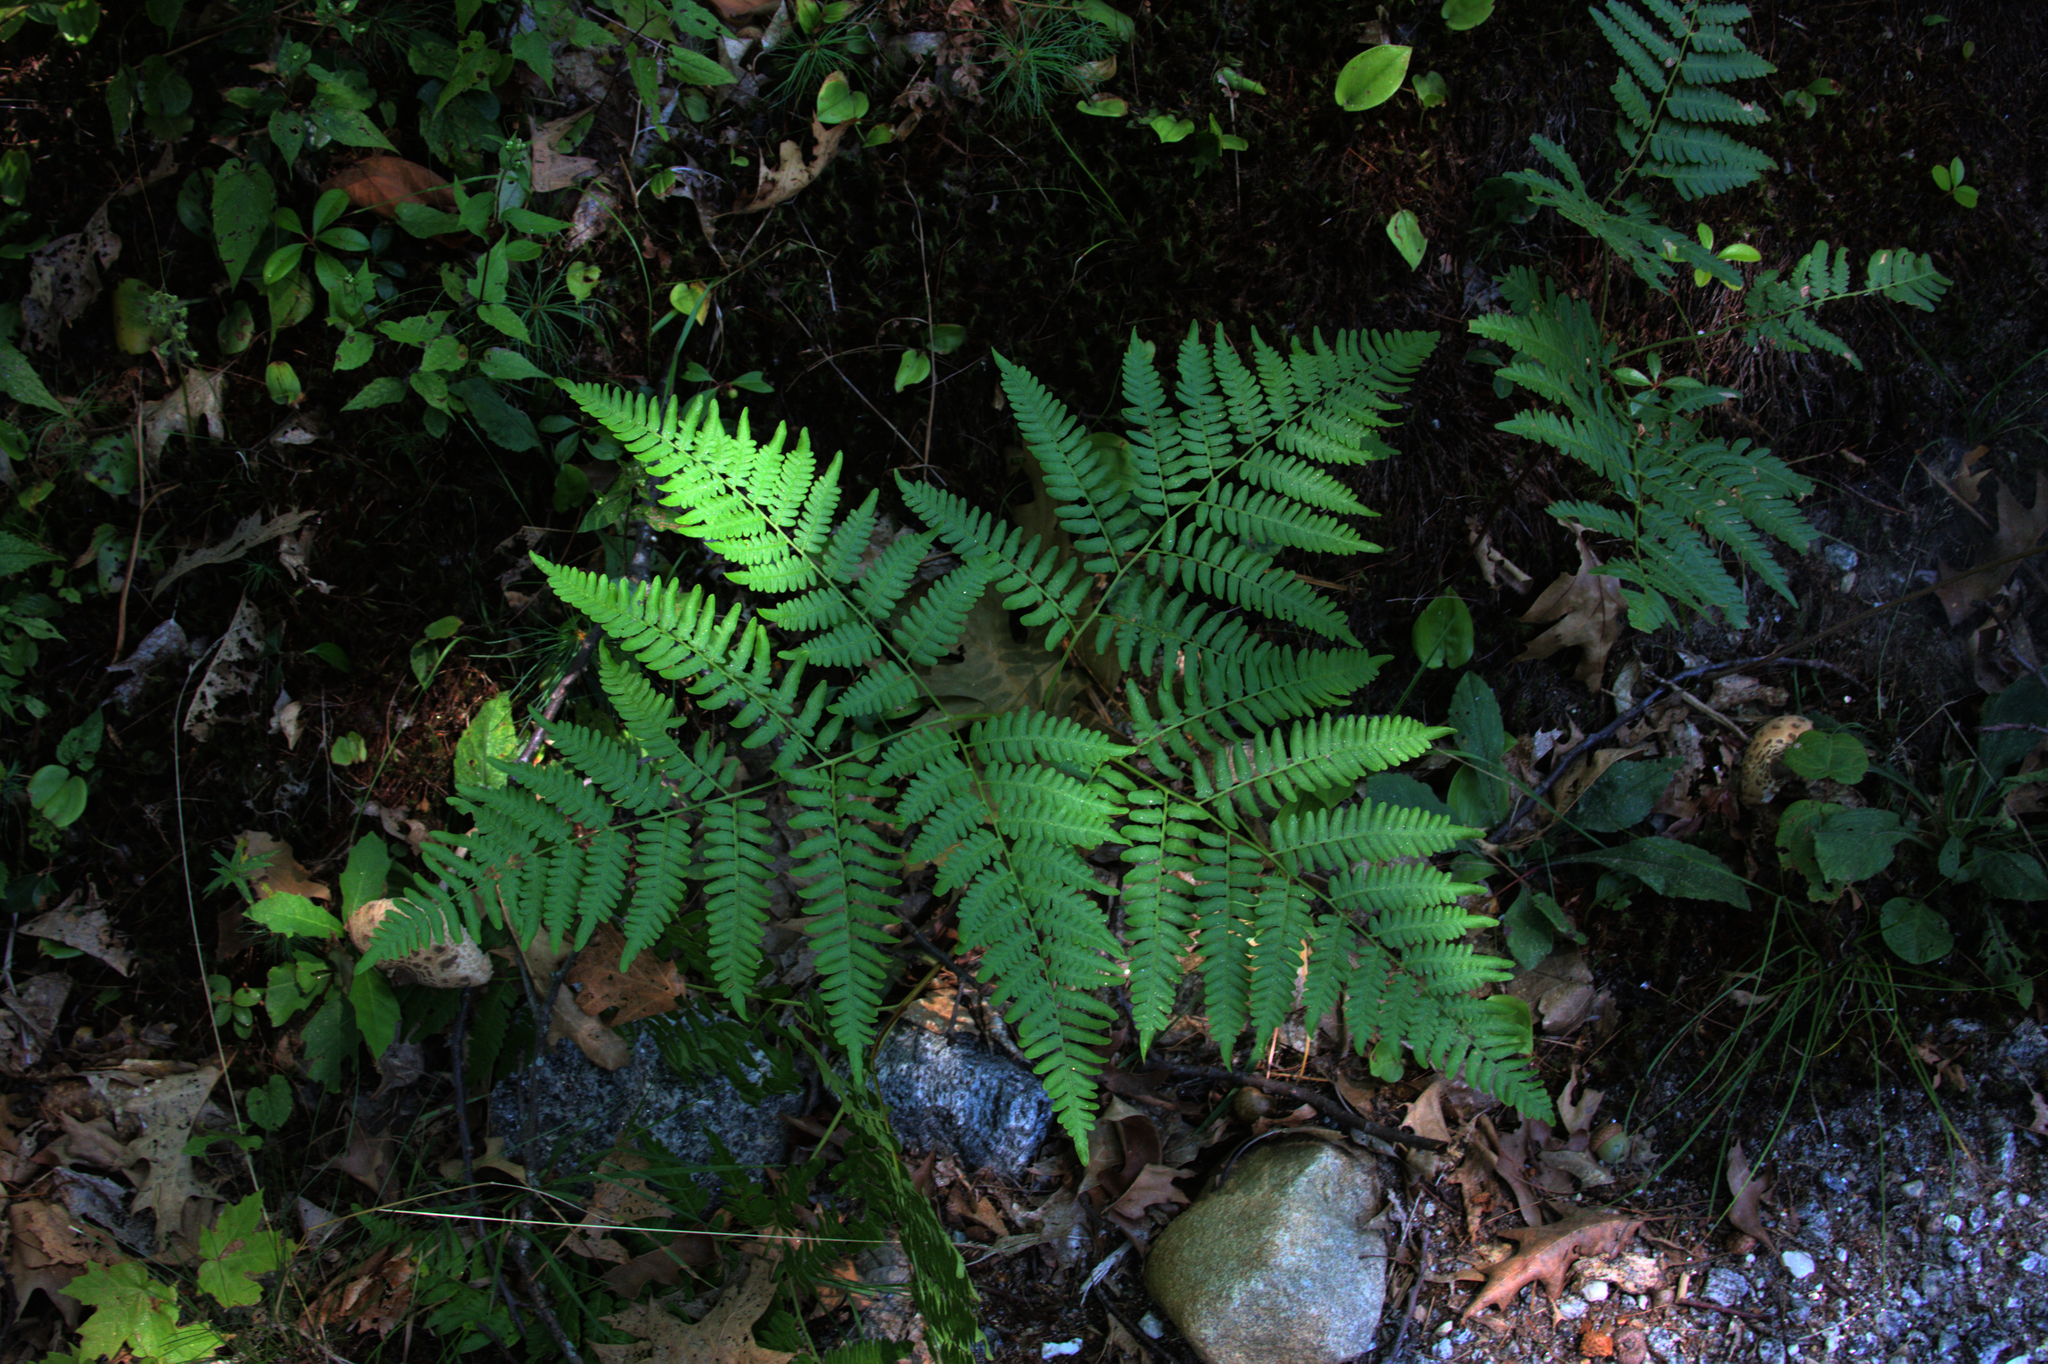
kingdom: Plantae
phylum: Tracheophyta
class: Polypodiopsida
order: Polypodiales
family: Dennstaedtiaceae
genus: Pteridium
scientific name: Pteridium aquilinum
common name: Bracken
